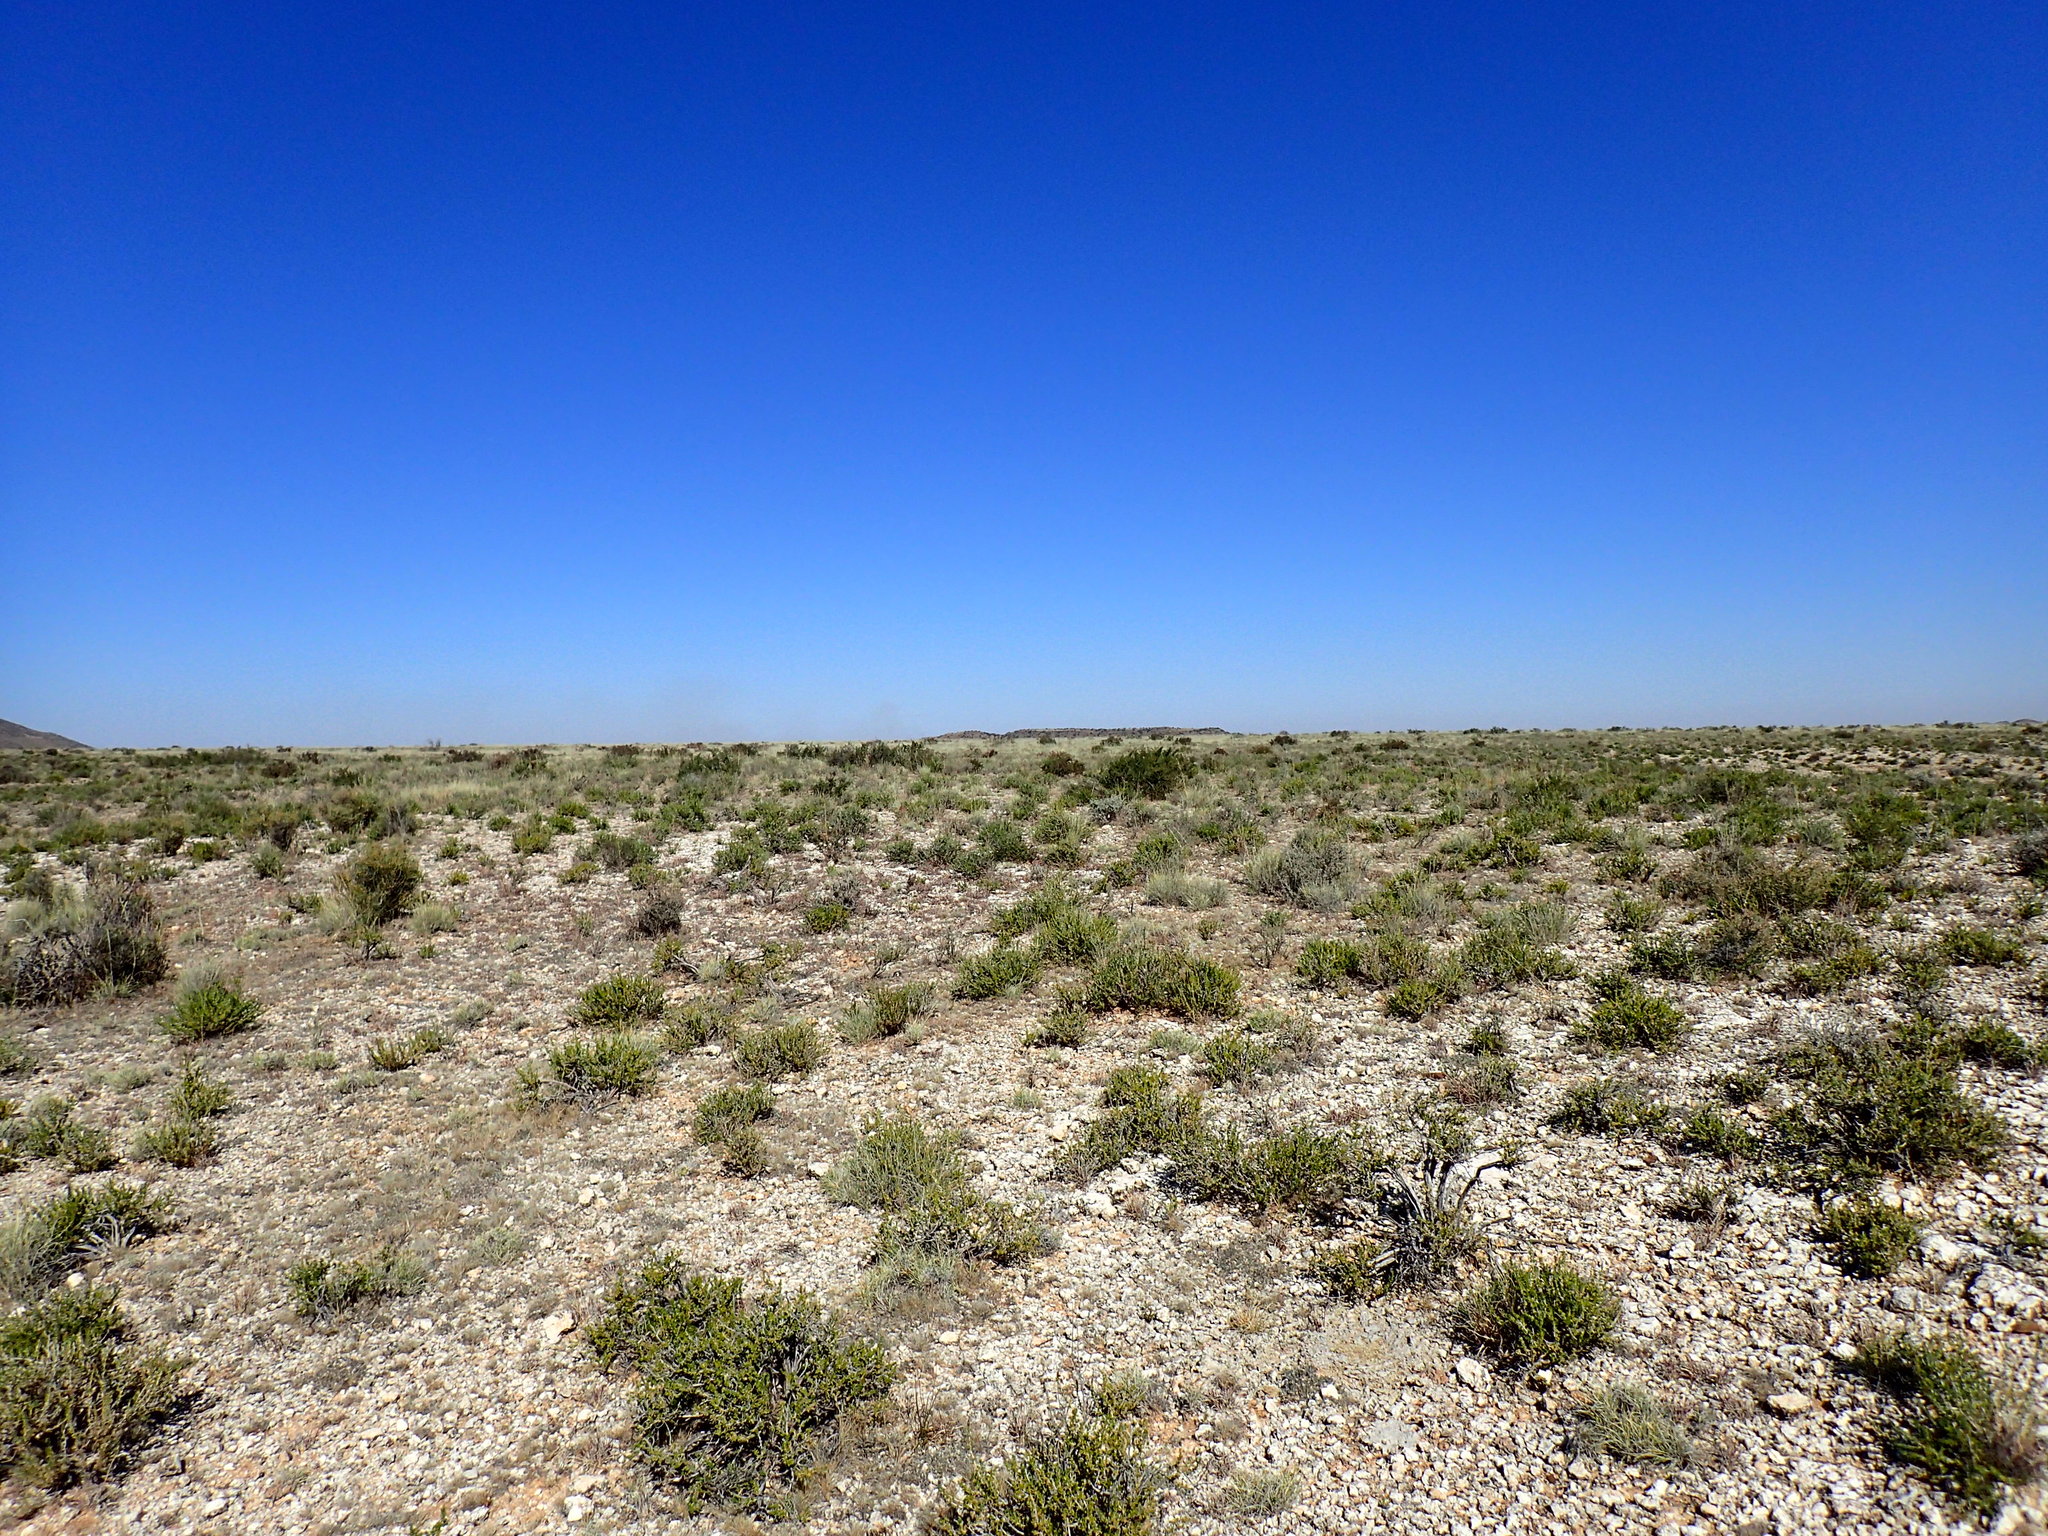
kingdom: Plantae
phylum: Tracheophyta
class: Magnoliopsida
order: Caryophyllales
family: Aizoaceae
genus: Titanopsis
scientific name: Titanopsis calcarea
